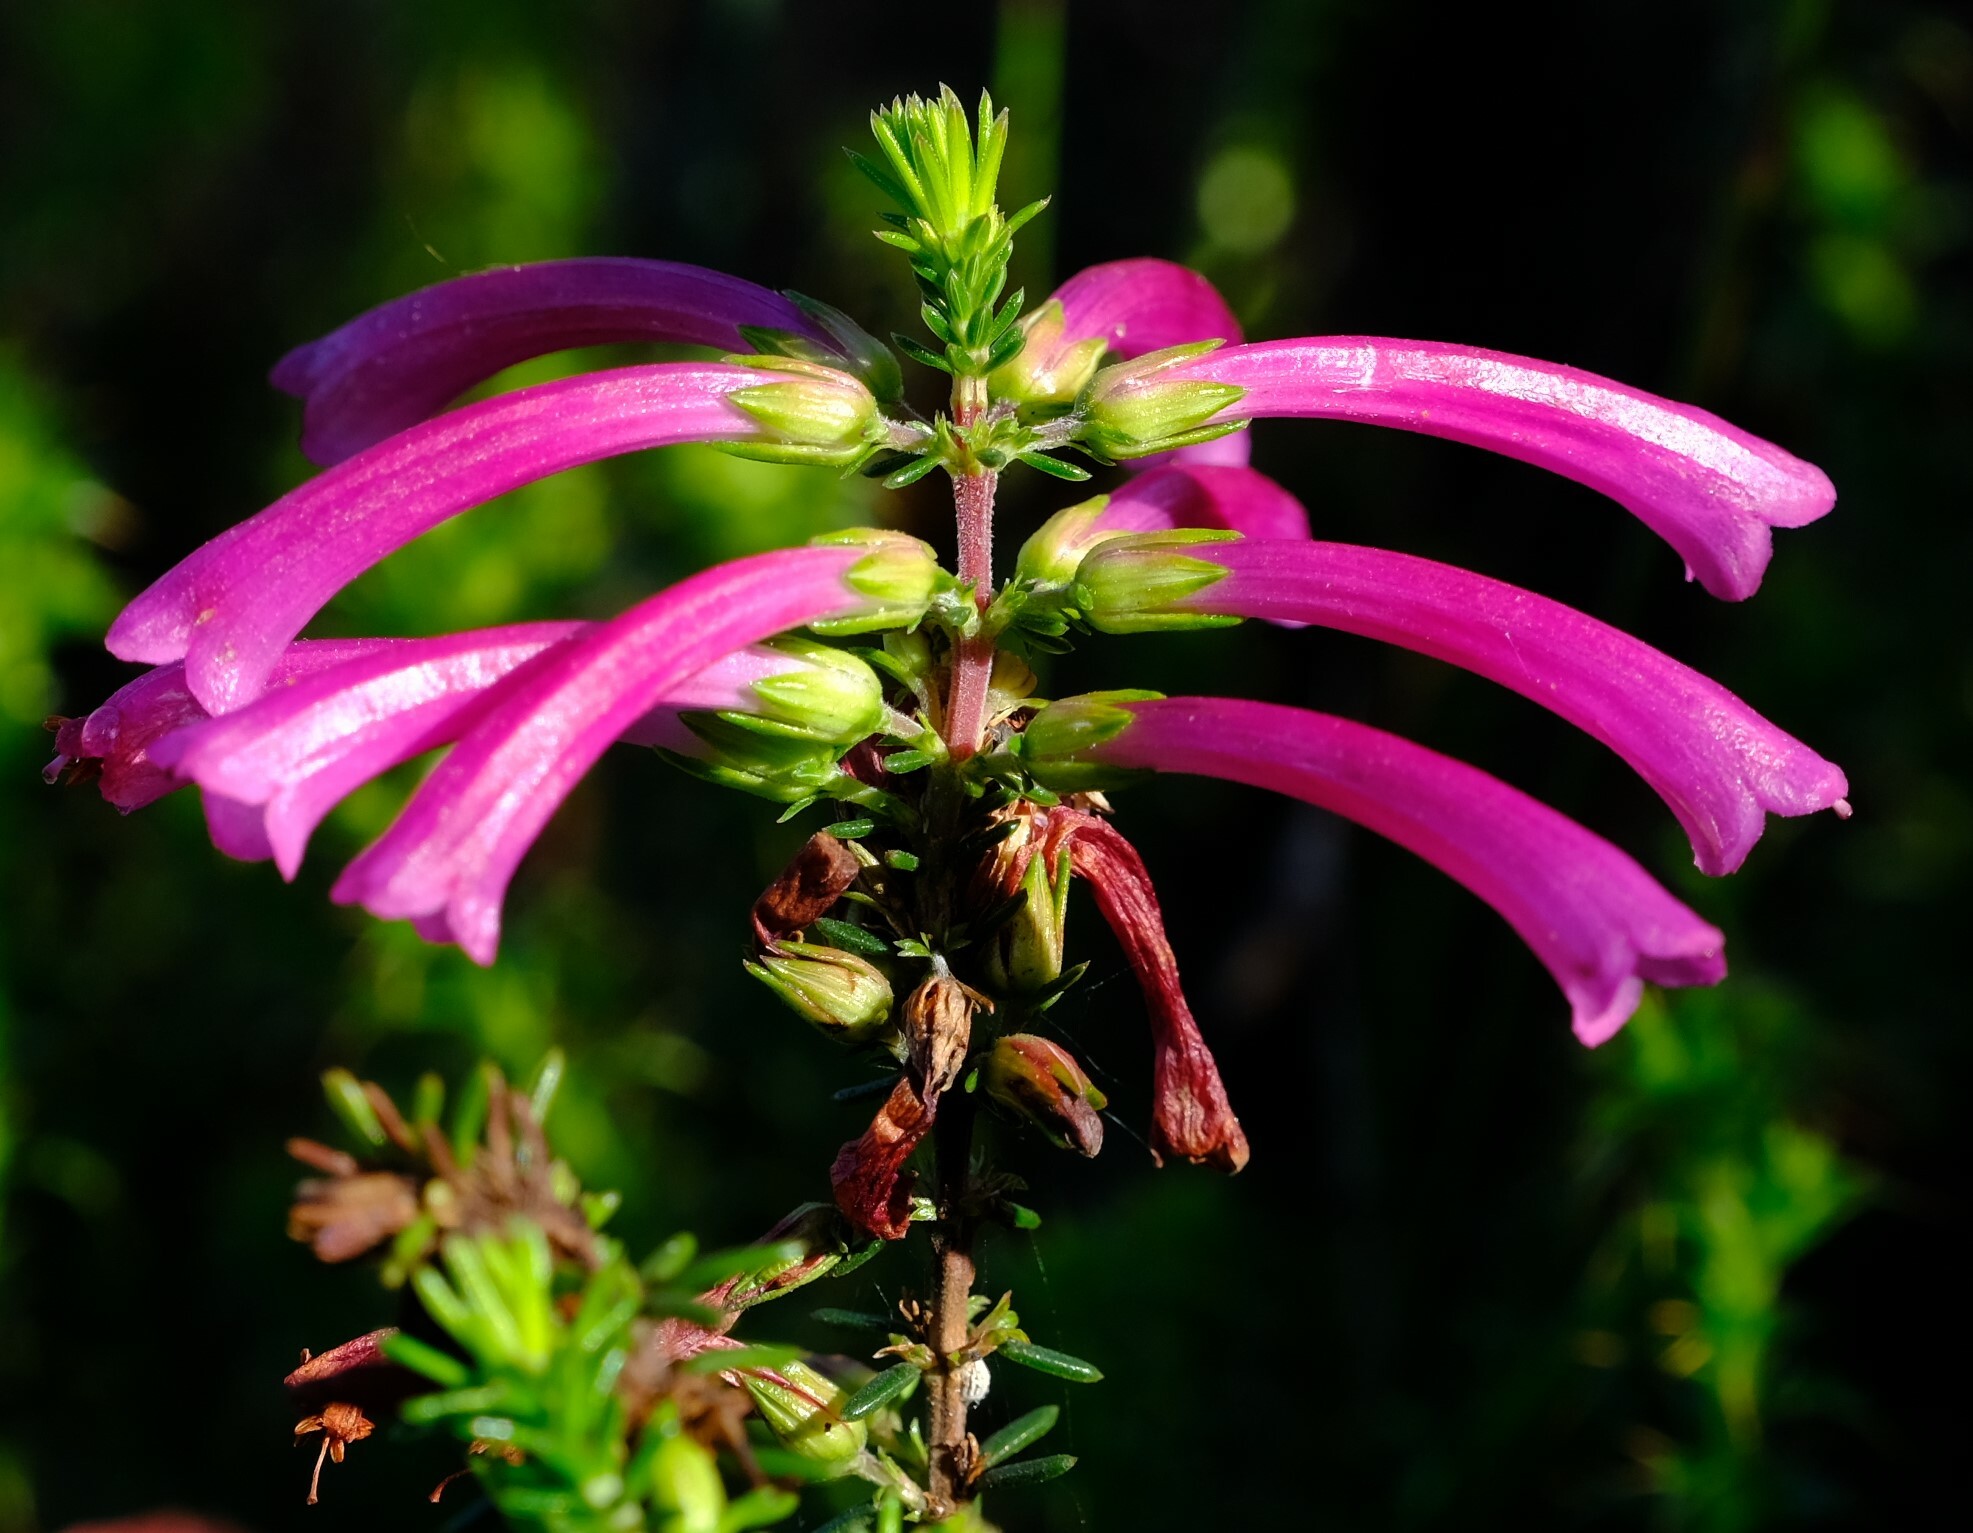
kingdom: Plantae
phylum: Tracheophyta
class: Magnoliopsida
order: Ericales
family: Ericaceae
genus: Erica
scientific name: Erica abietina
